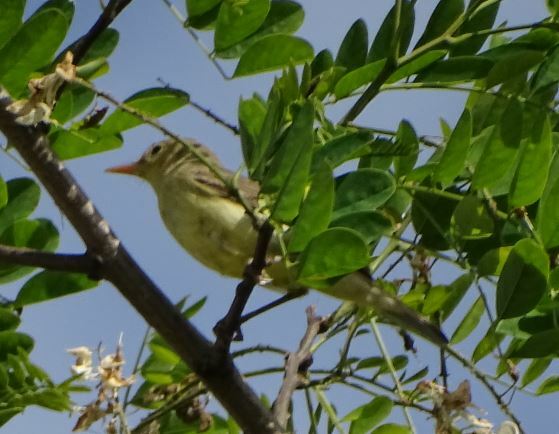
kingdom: Animalia
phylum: Chordata
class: Aves
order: Passeriformes
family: Acrocephalidae
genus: Hippolais
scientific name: Hippolais polyglotta
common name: Melodious warbler
